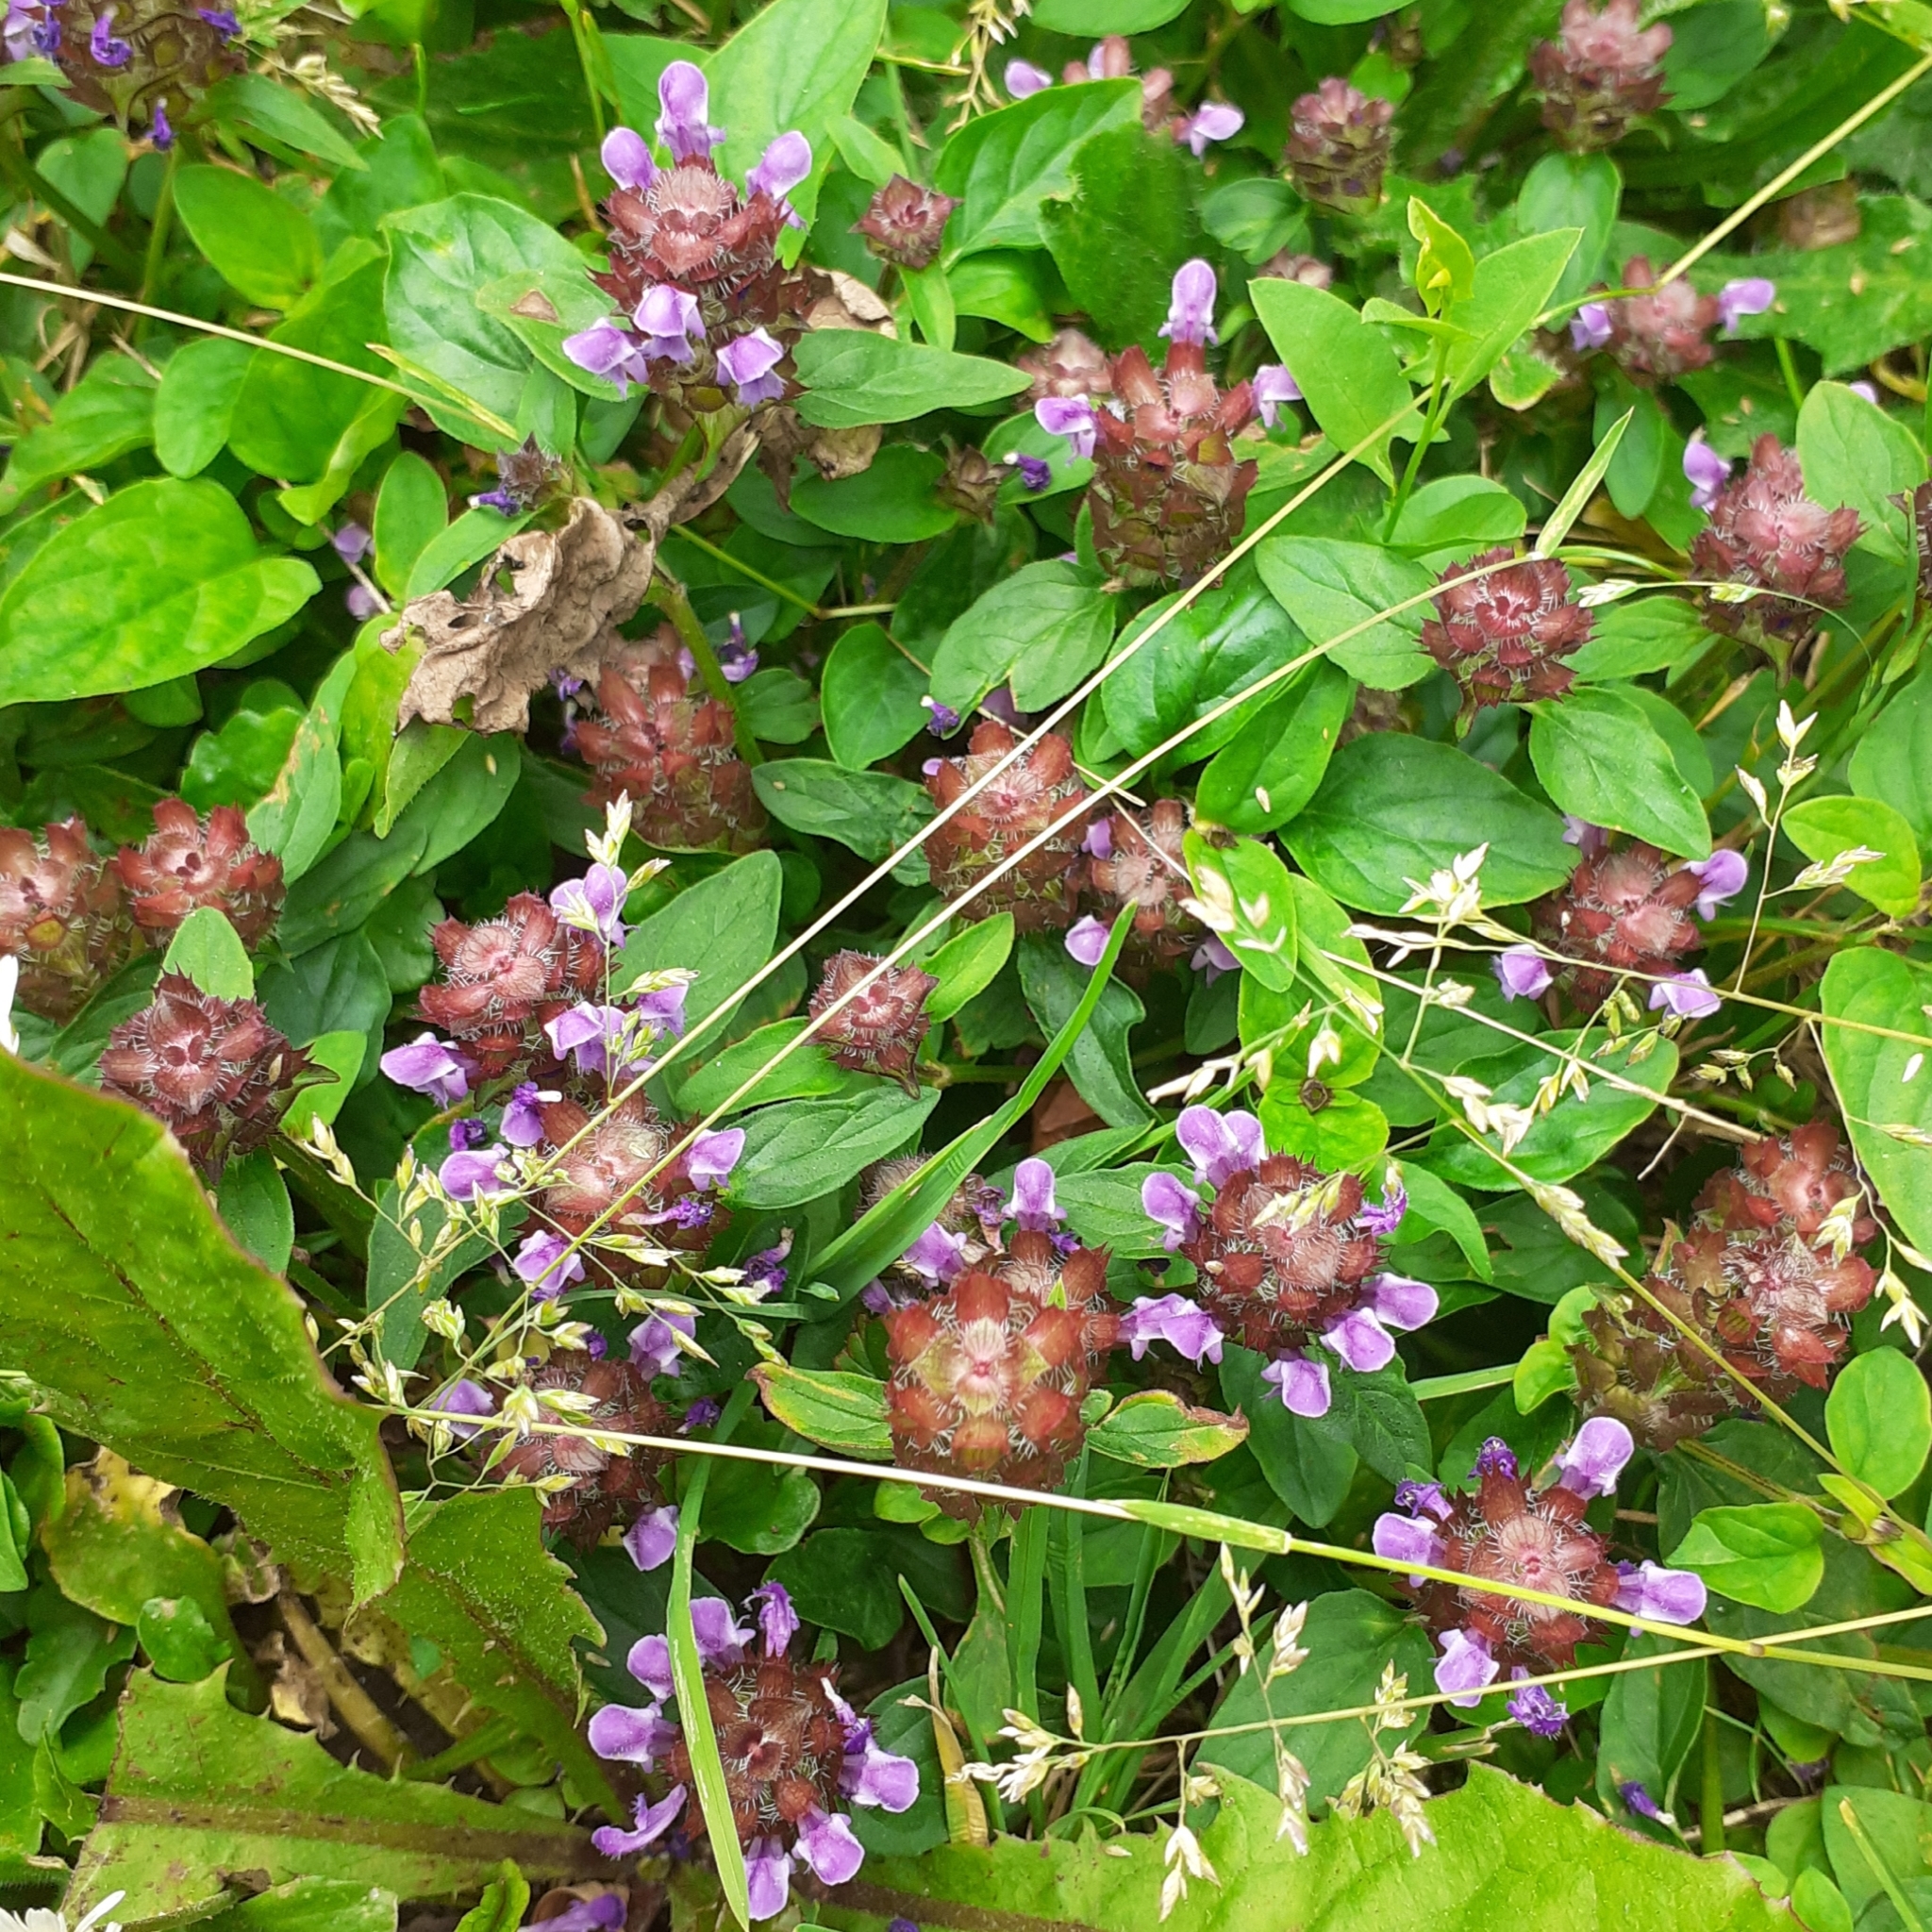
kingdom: Plantae
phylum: Tracheophyta
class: Magnoliopsida
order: Lamiales
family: Lamiaceae
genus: Prunella
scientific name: Prunella vulgaris
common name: Heal-all
